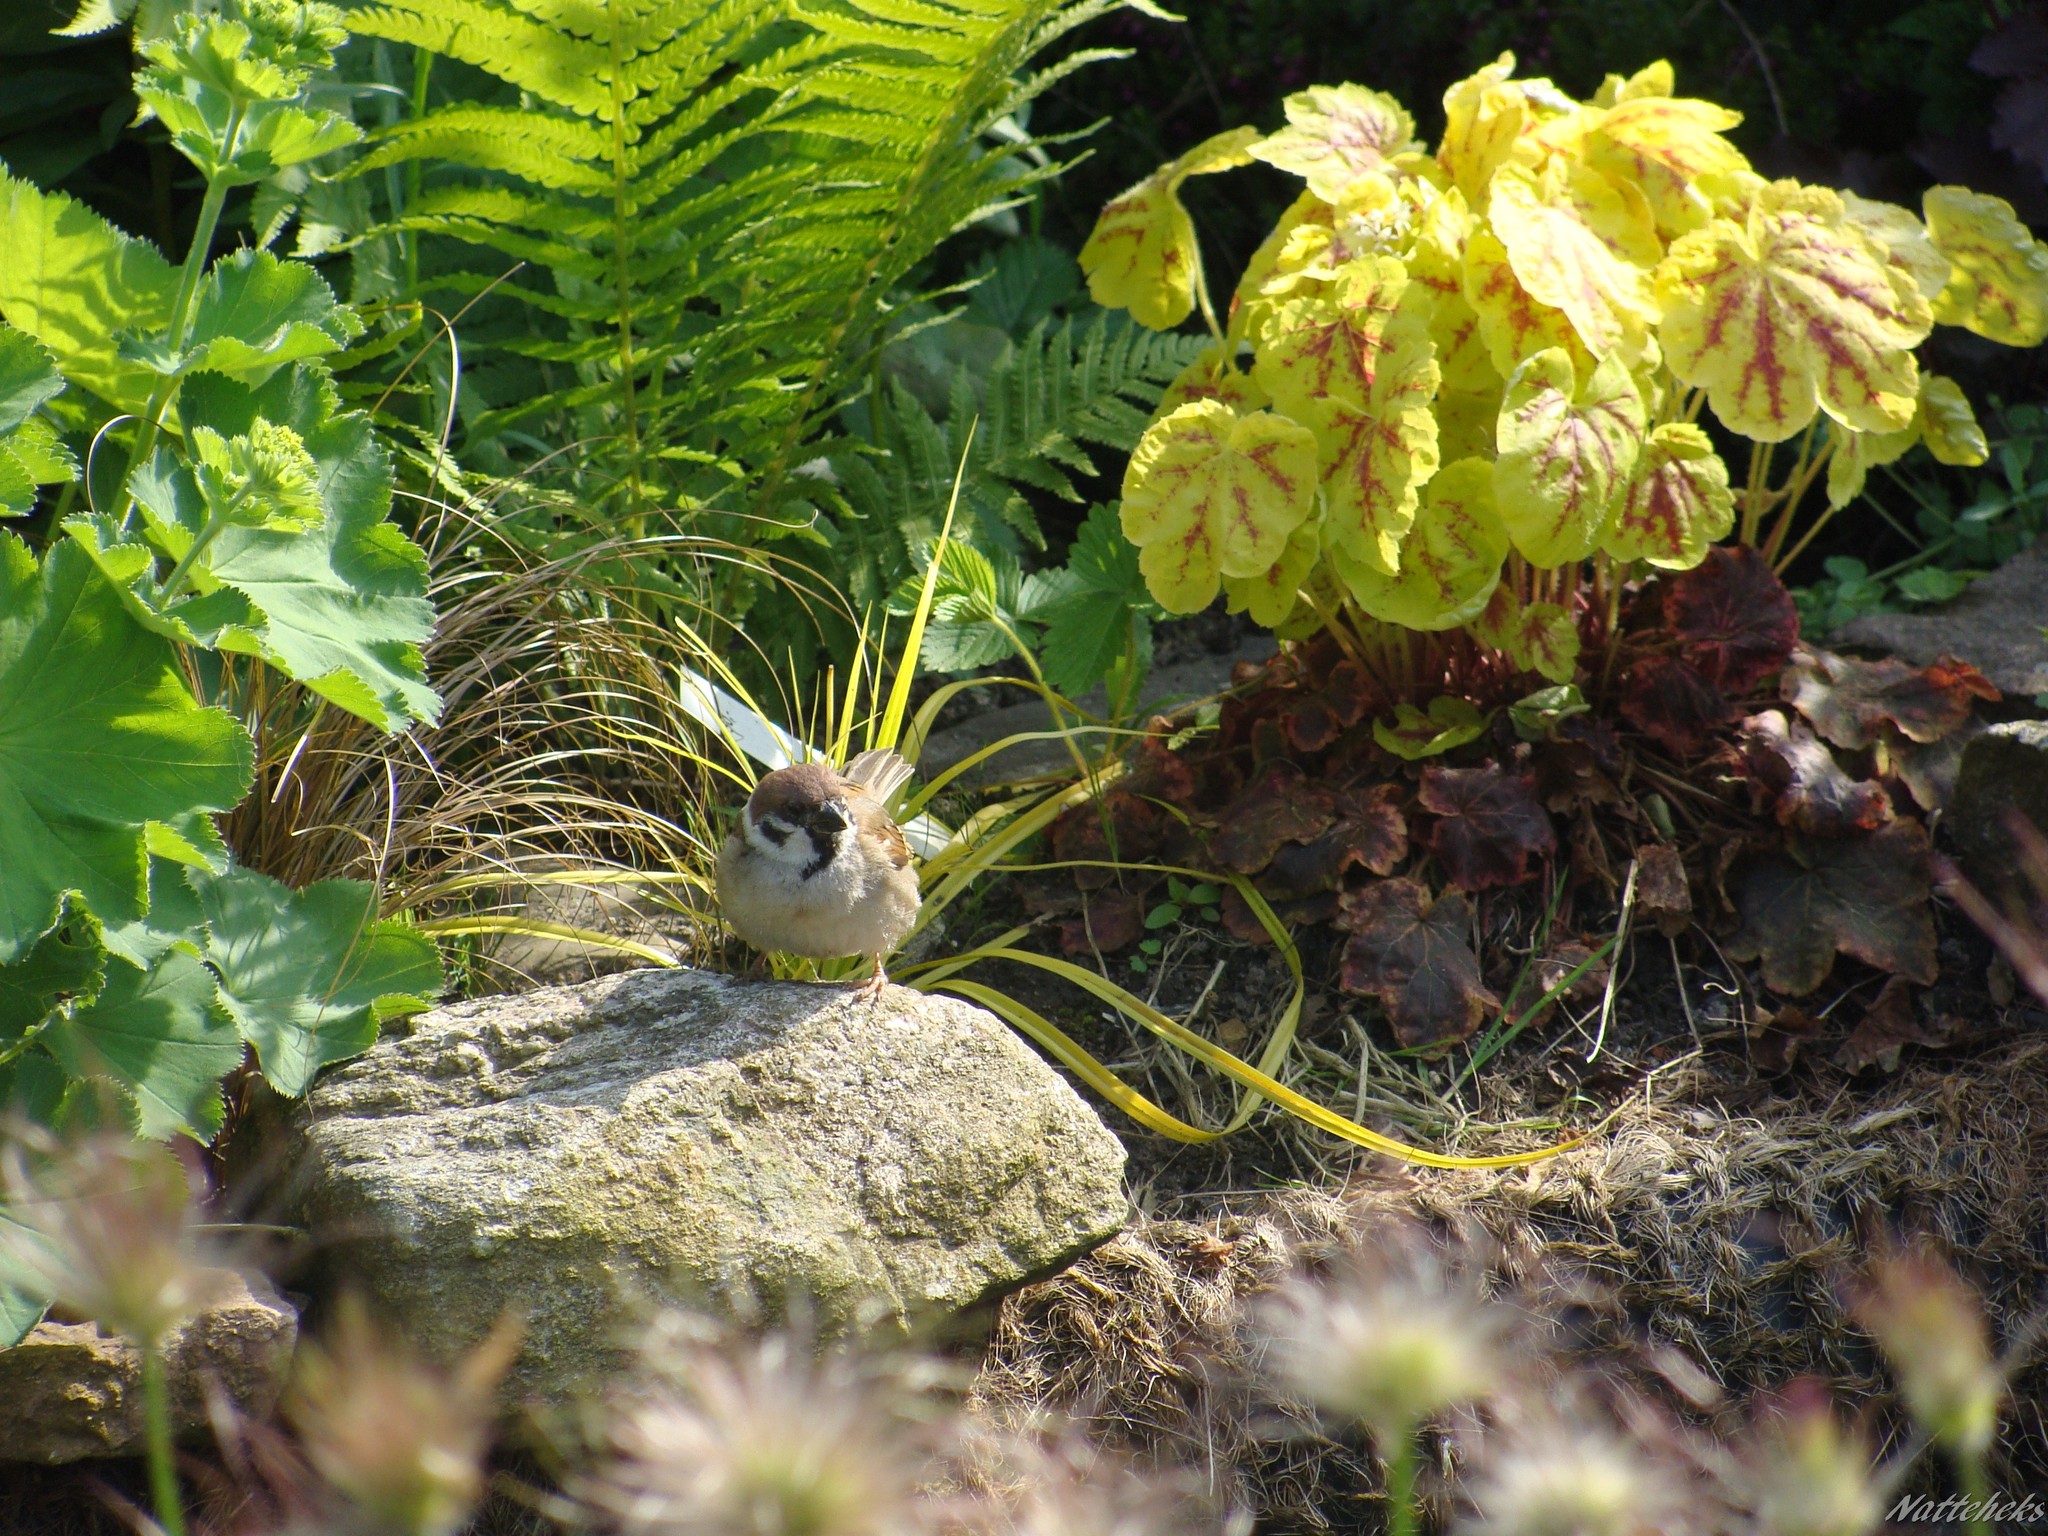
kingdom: Animalia
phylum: Chordata
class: Aves
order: Passeriformes
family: Passeridae
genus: Passer
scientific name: Passer montanus
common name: Eurasian tree sparrow
